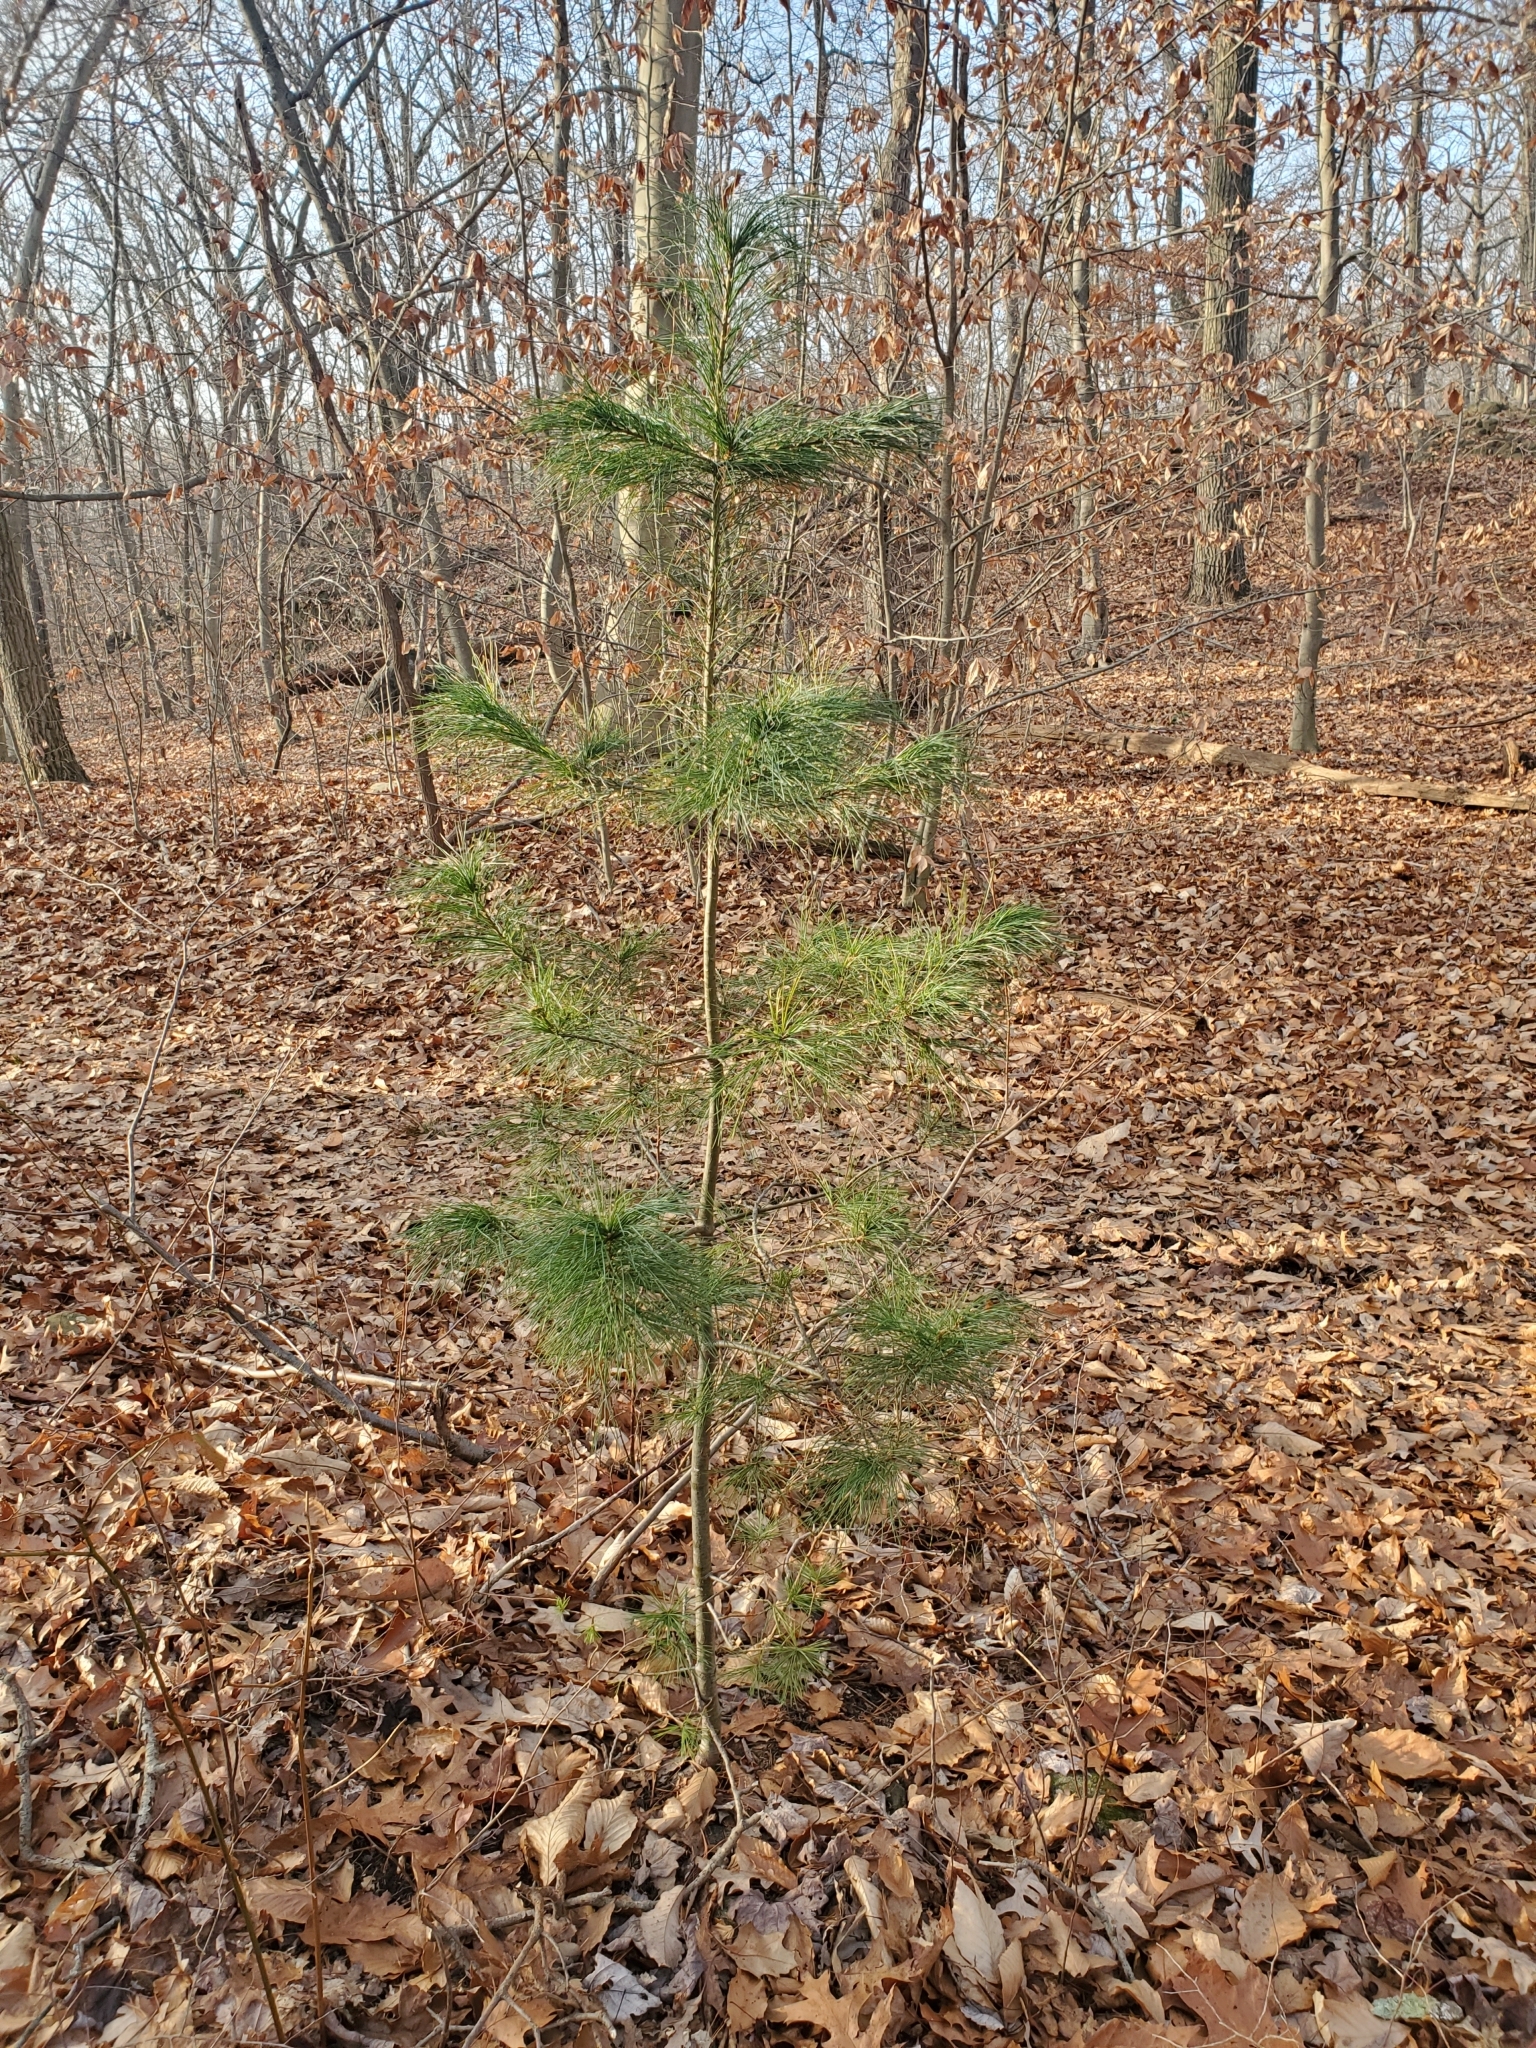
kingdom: Plantae
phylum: Tracheophyta
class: Pinopsida
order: Pinales
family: Pinaceae
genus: Pinus
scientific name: Pinus strobus
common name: Weymouth pine
